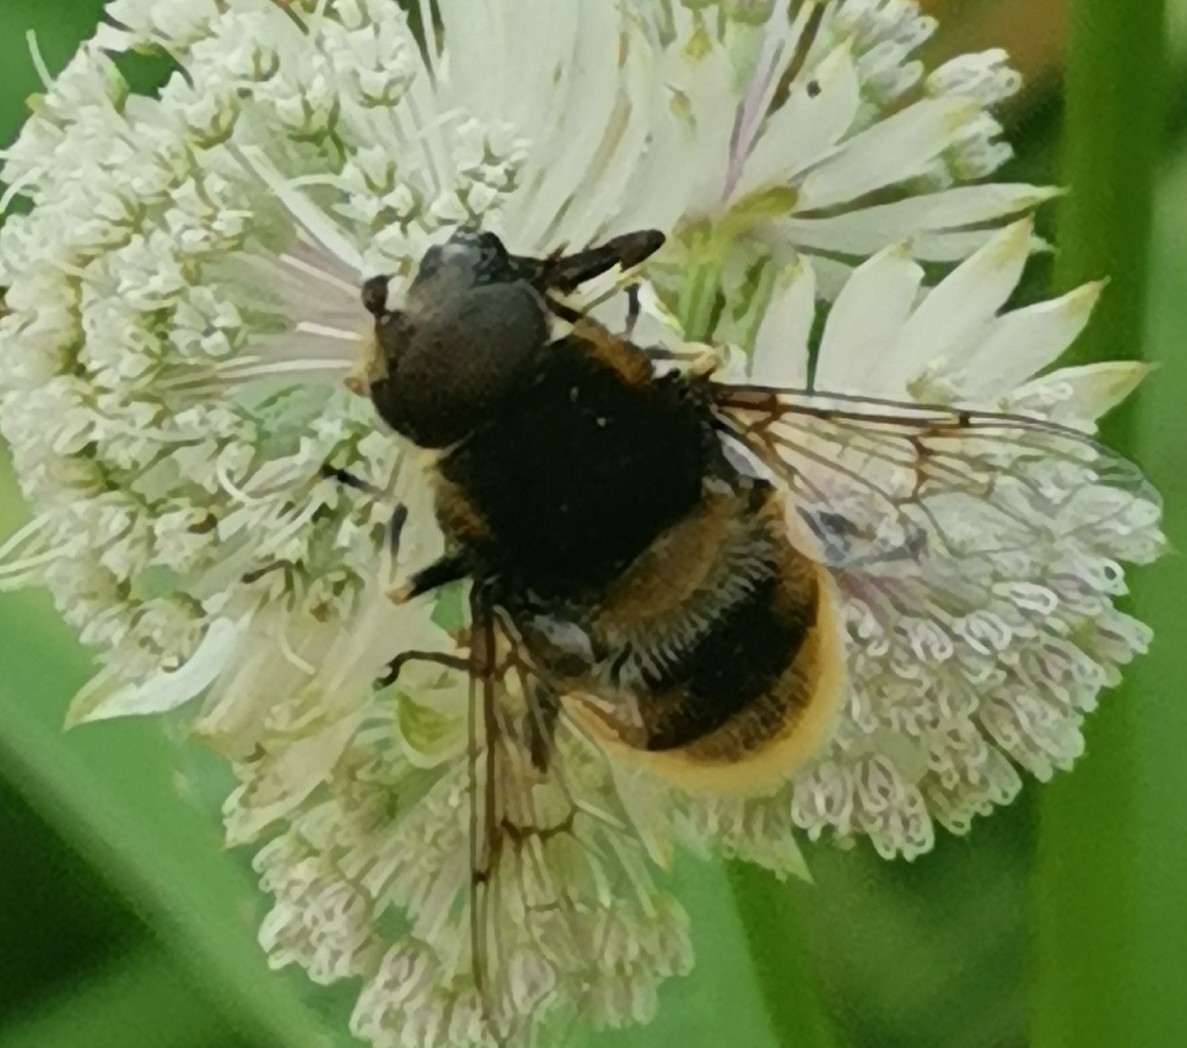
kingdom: Animalia
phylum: Arthropoda
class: Insecta
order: Diptera
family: Syrphidae
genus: Eristalis
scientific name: Eristalis intricaria
